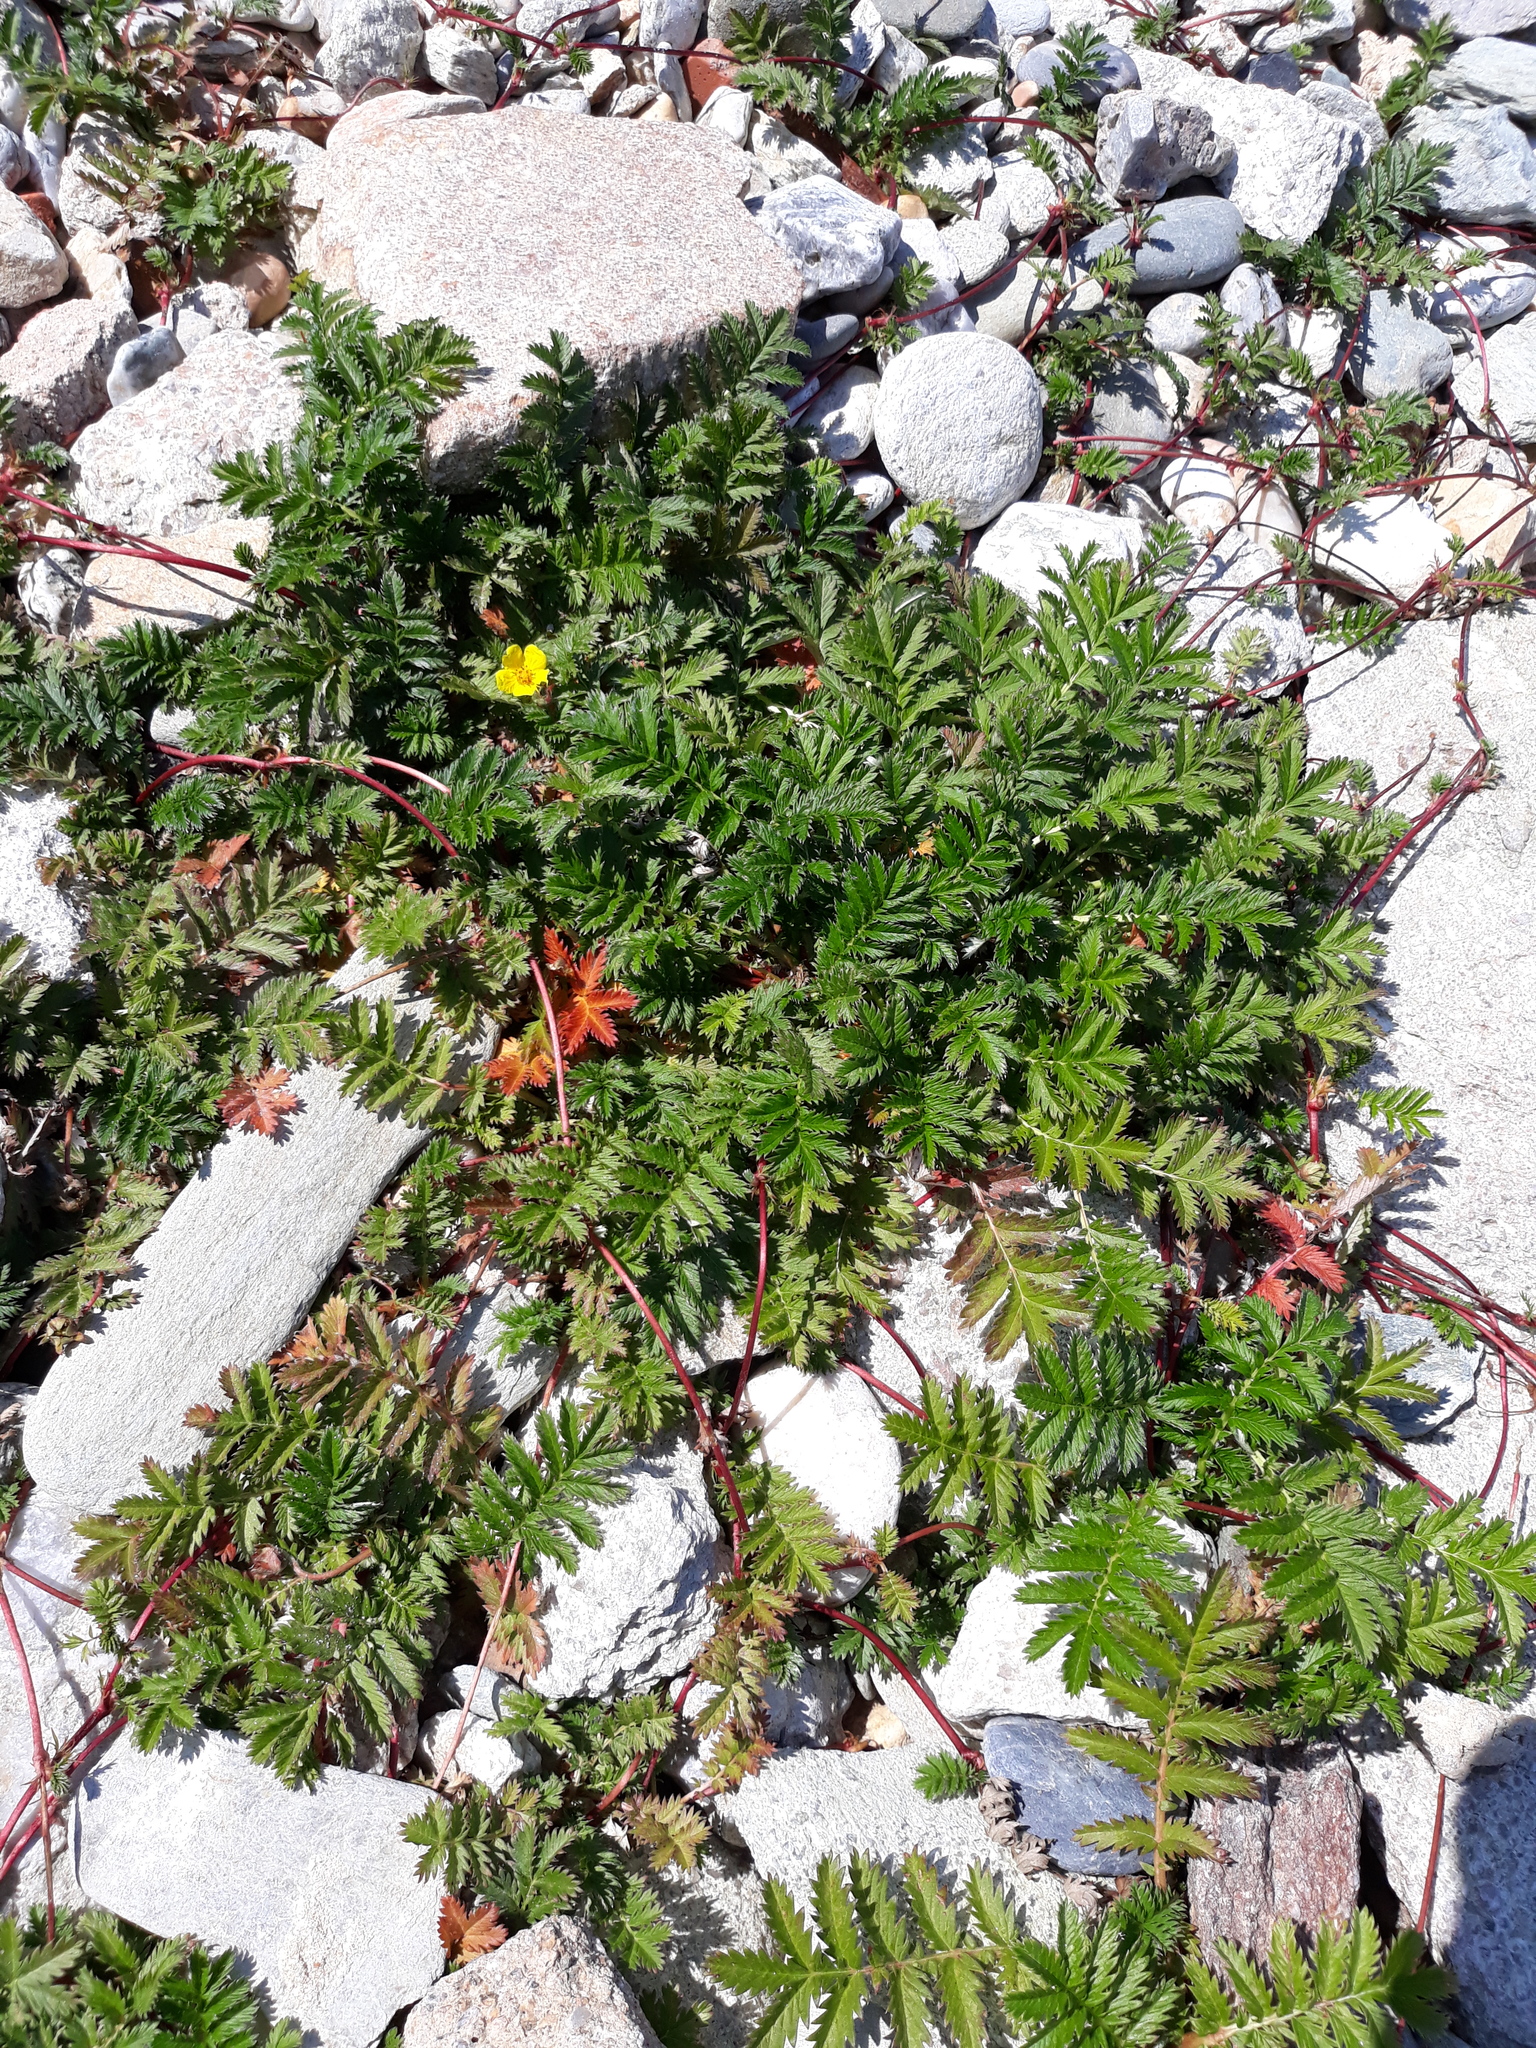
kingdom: Plantae
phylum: Tracheophyta
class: Magnoliopsida
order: Rosales
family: Rosaceae
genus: Argentina
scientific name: Argentina anserina
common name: Common silverweed
